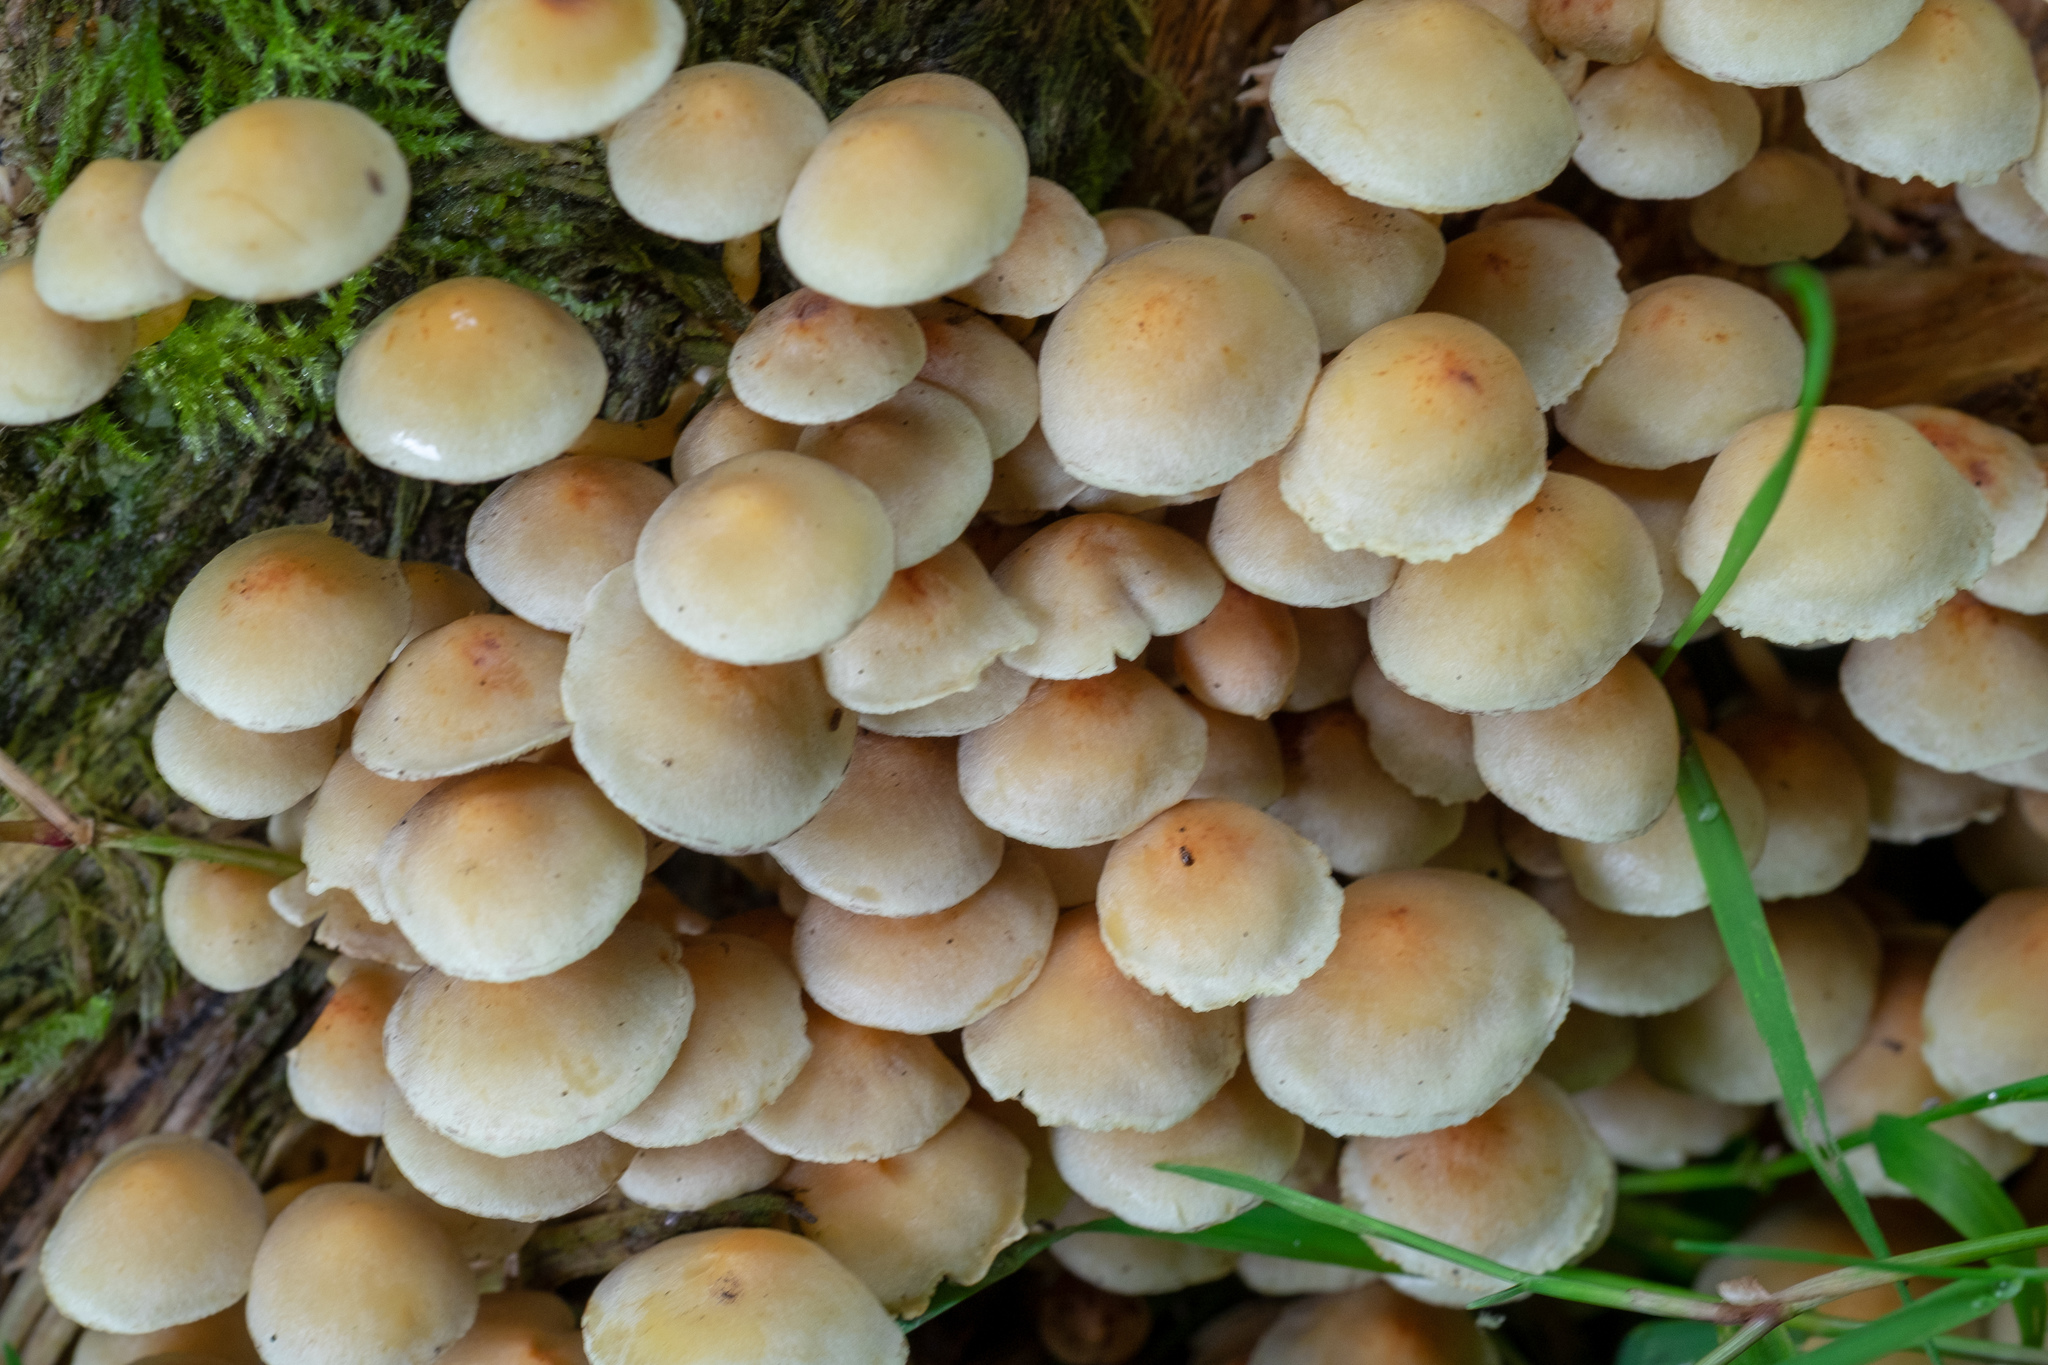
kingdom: Fungi
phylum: Basidiomycota
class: Agaricomycetes
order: Agaricales
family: Strophariaceae
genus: Hypholoma
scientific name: Hypholoma fasciculare
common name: Sulphur tuft
